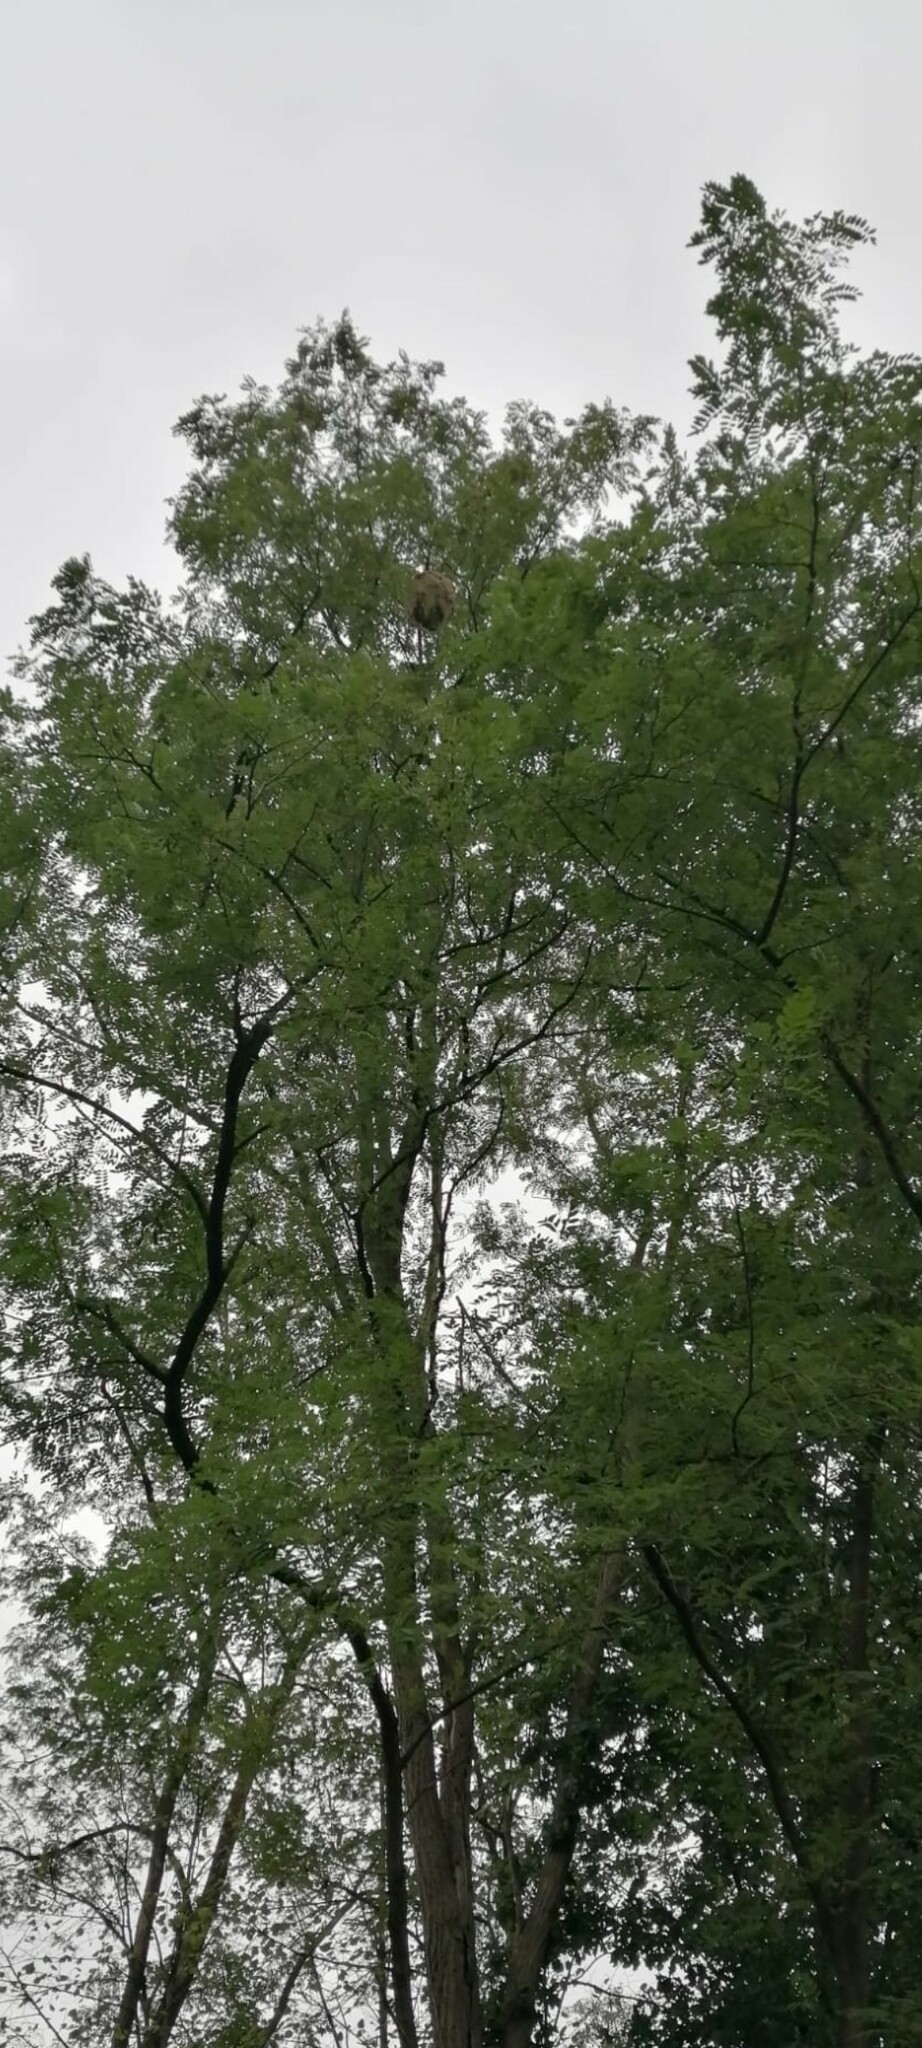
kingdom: Animalia
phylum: Arthropoda
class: Insecta
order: Hymenoptera
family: Vespidae
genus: Vespa
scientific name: Vespa velutina
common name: Asian hornet
